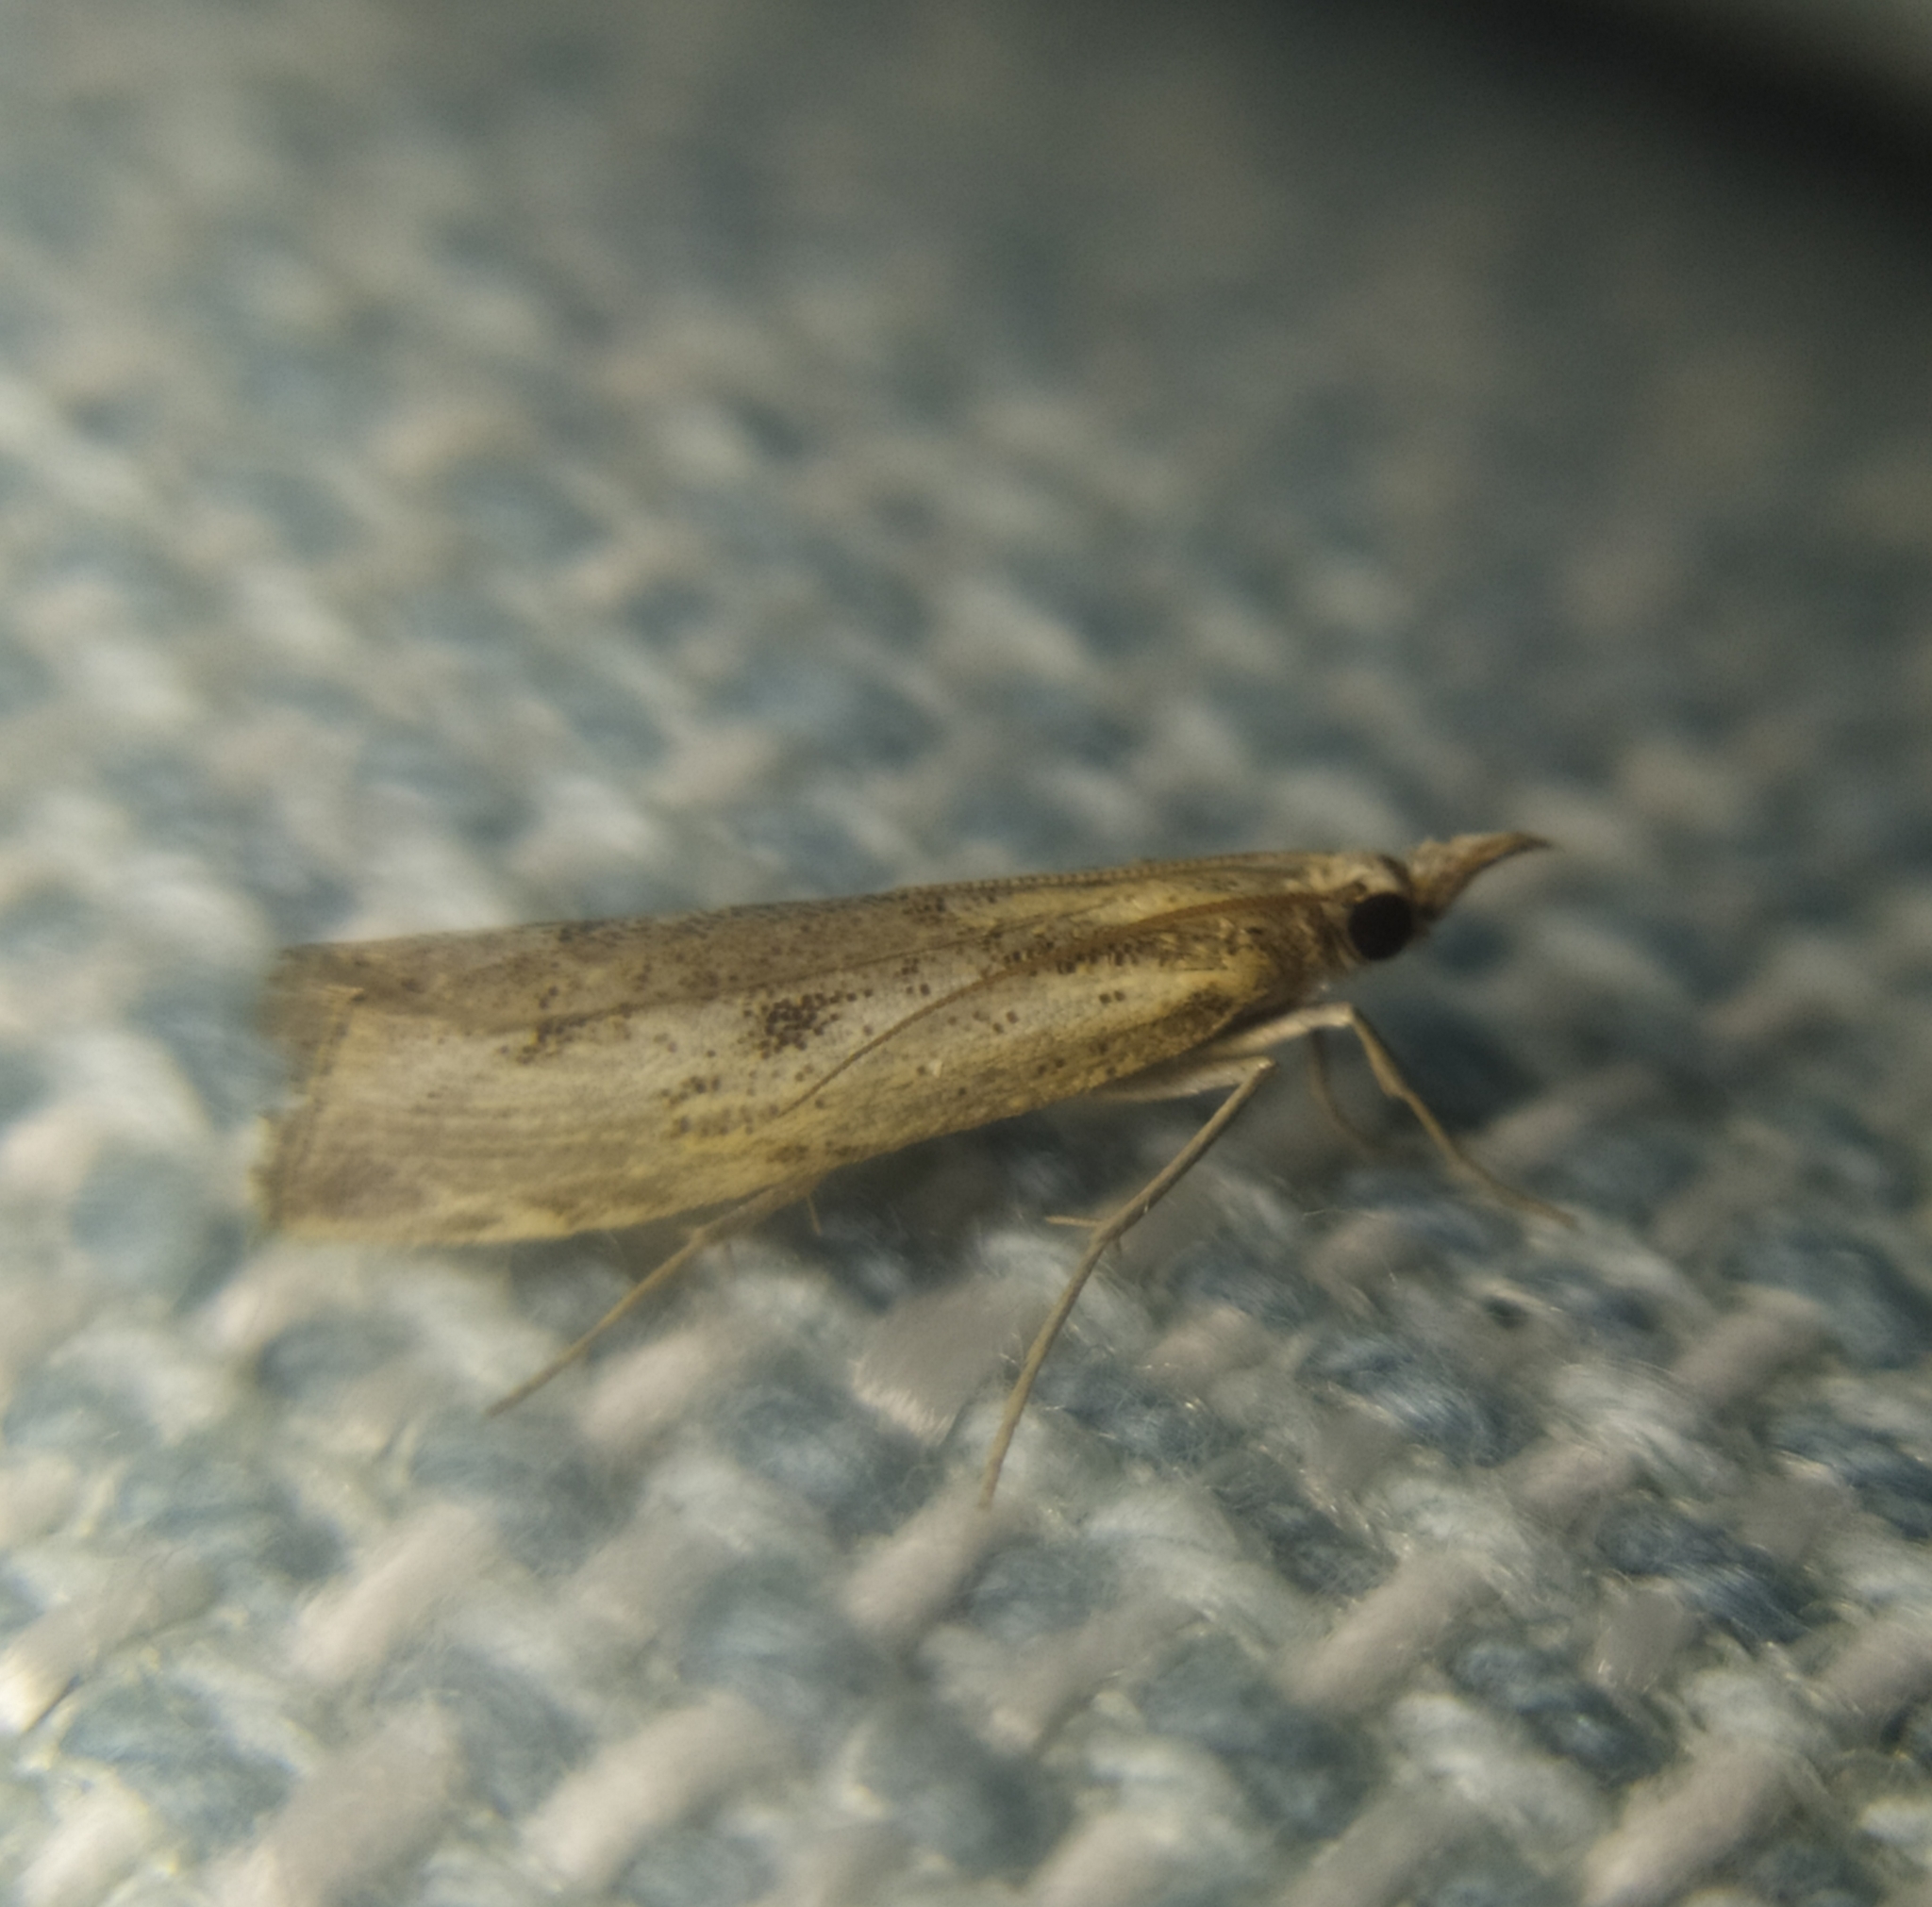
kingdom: Animalia
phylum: Arthropoda
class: Insecta
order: Lepidoptera
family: Crambidae
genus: Agriphila
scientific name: Agriphila inquinatella
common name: Barred grass-veneer
